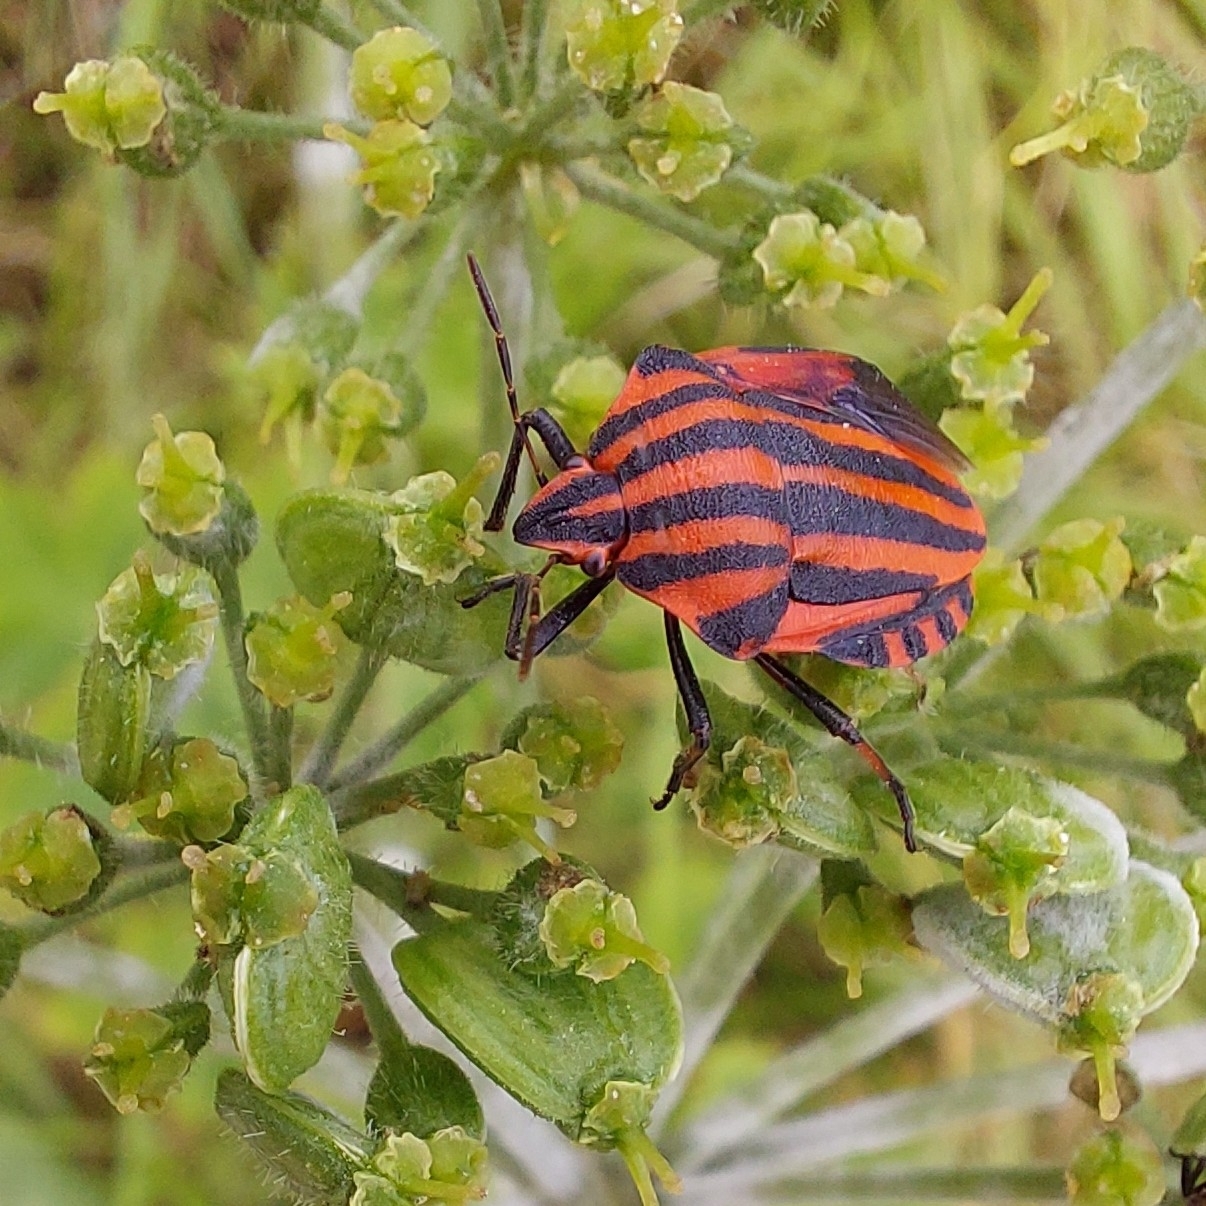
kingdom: Animalia
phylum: Arthropoda
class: Insecta
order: Hemiptera
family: Pentatomidae
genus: Graphosoma
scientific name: Graphosoma italicum
